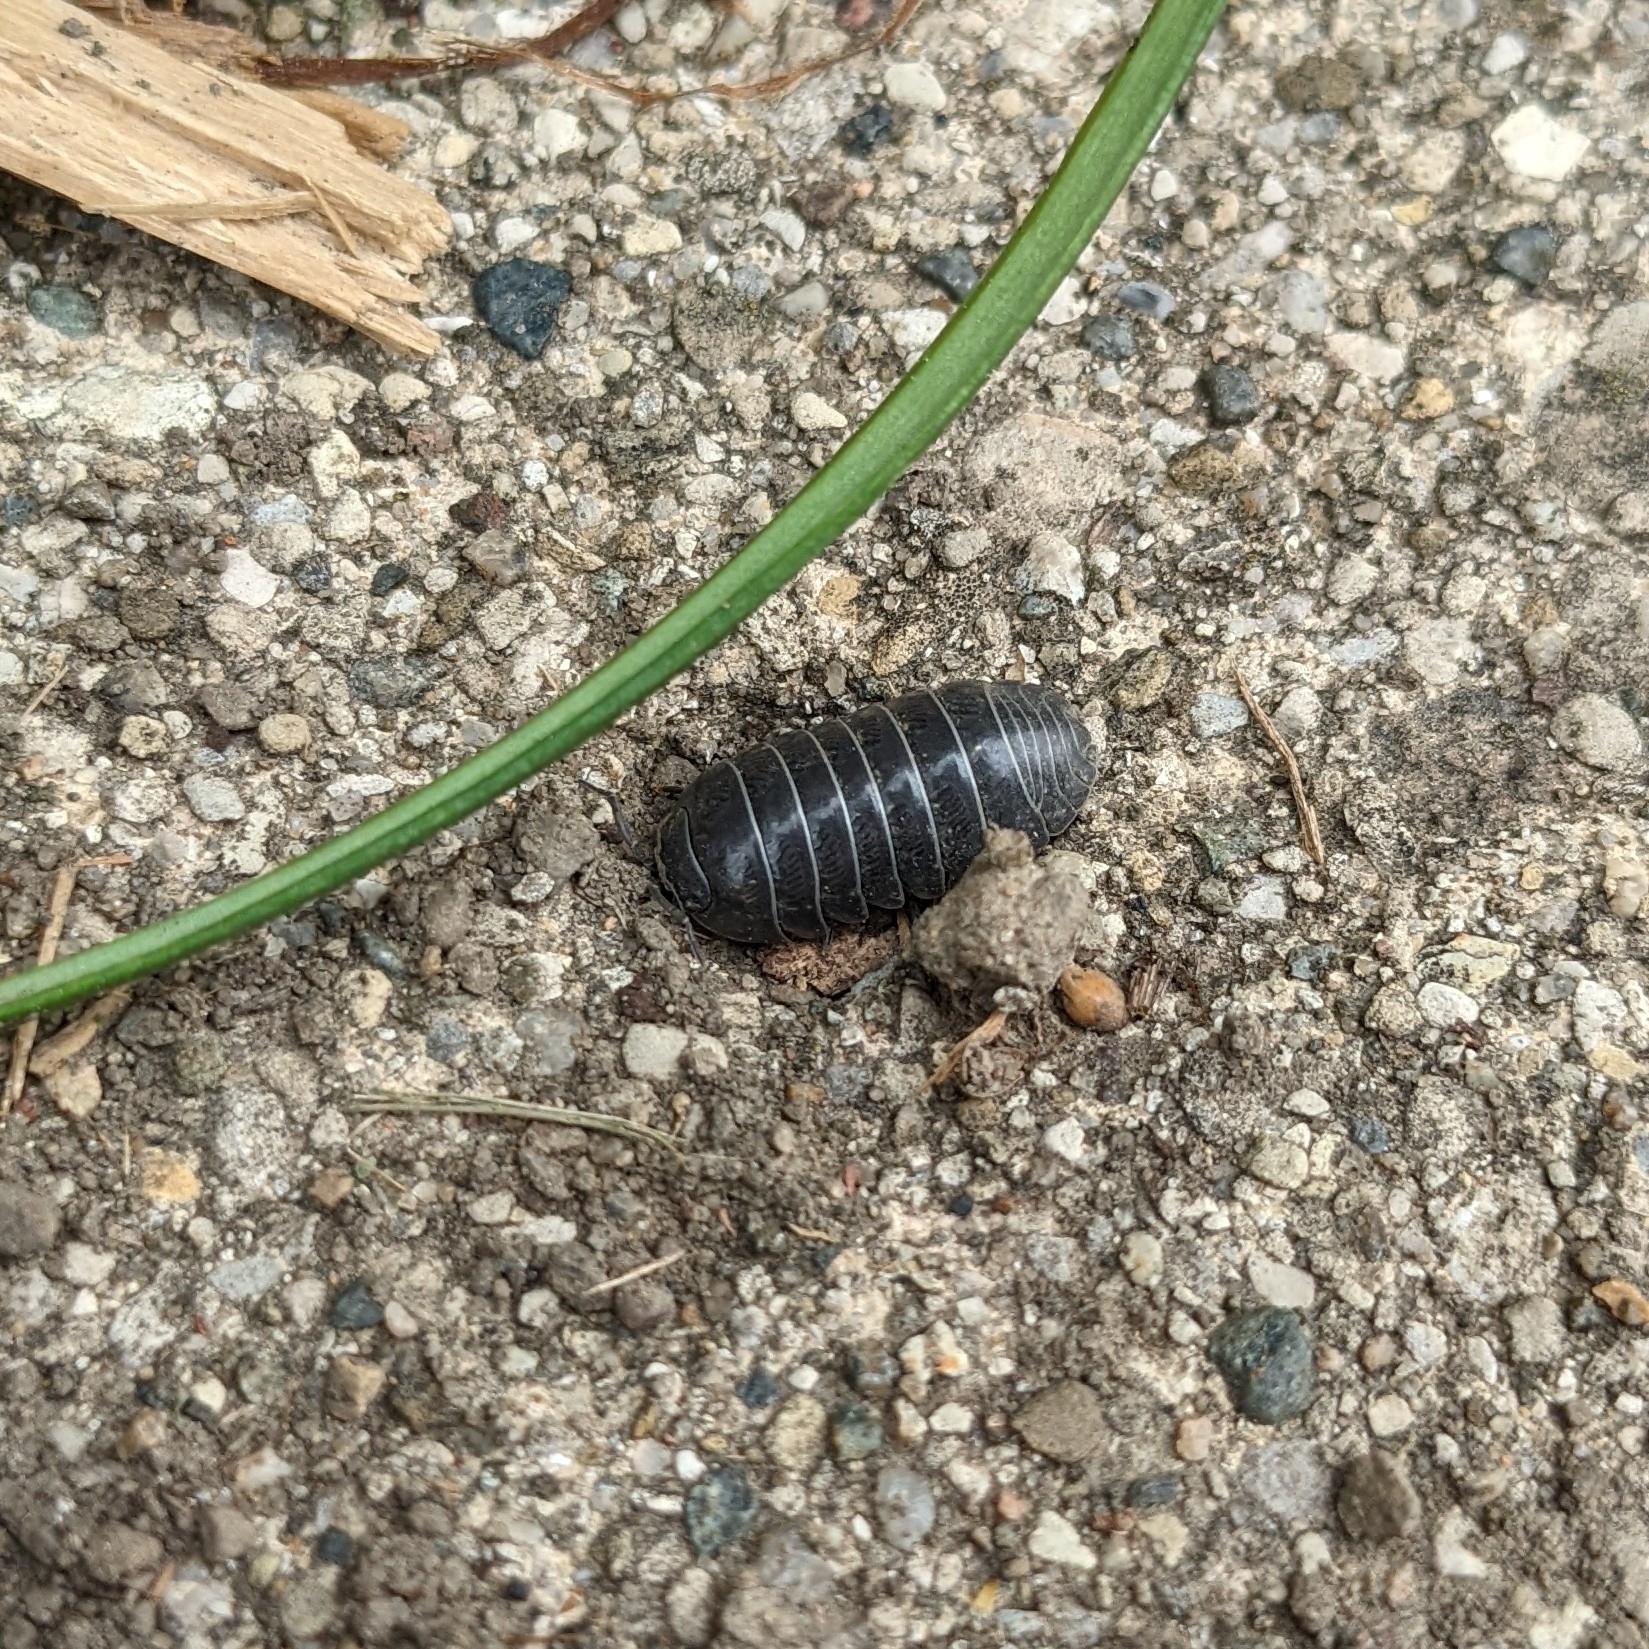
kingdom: Animalia
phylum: Arthropoda
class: Malacostraca
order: Isopoda
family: Armadillidiidae
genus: Armadillidium
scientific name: Armadillidium vulgare
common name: Common pill woodlouse
